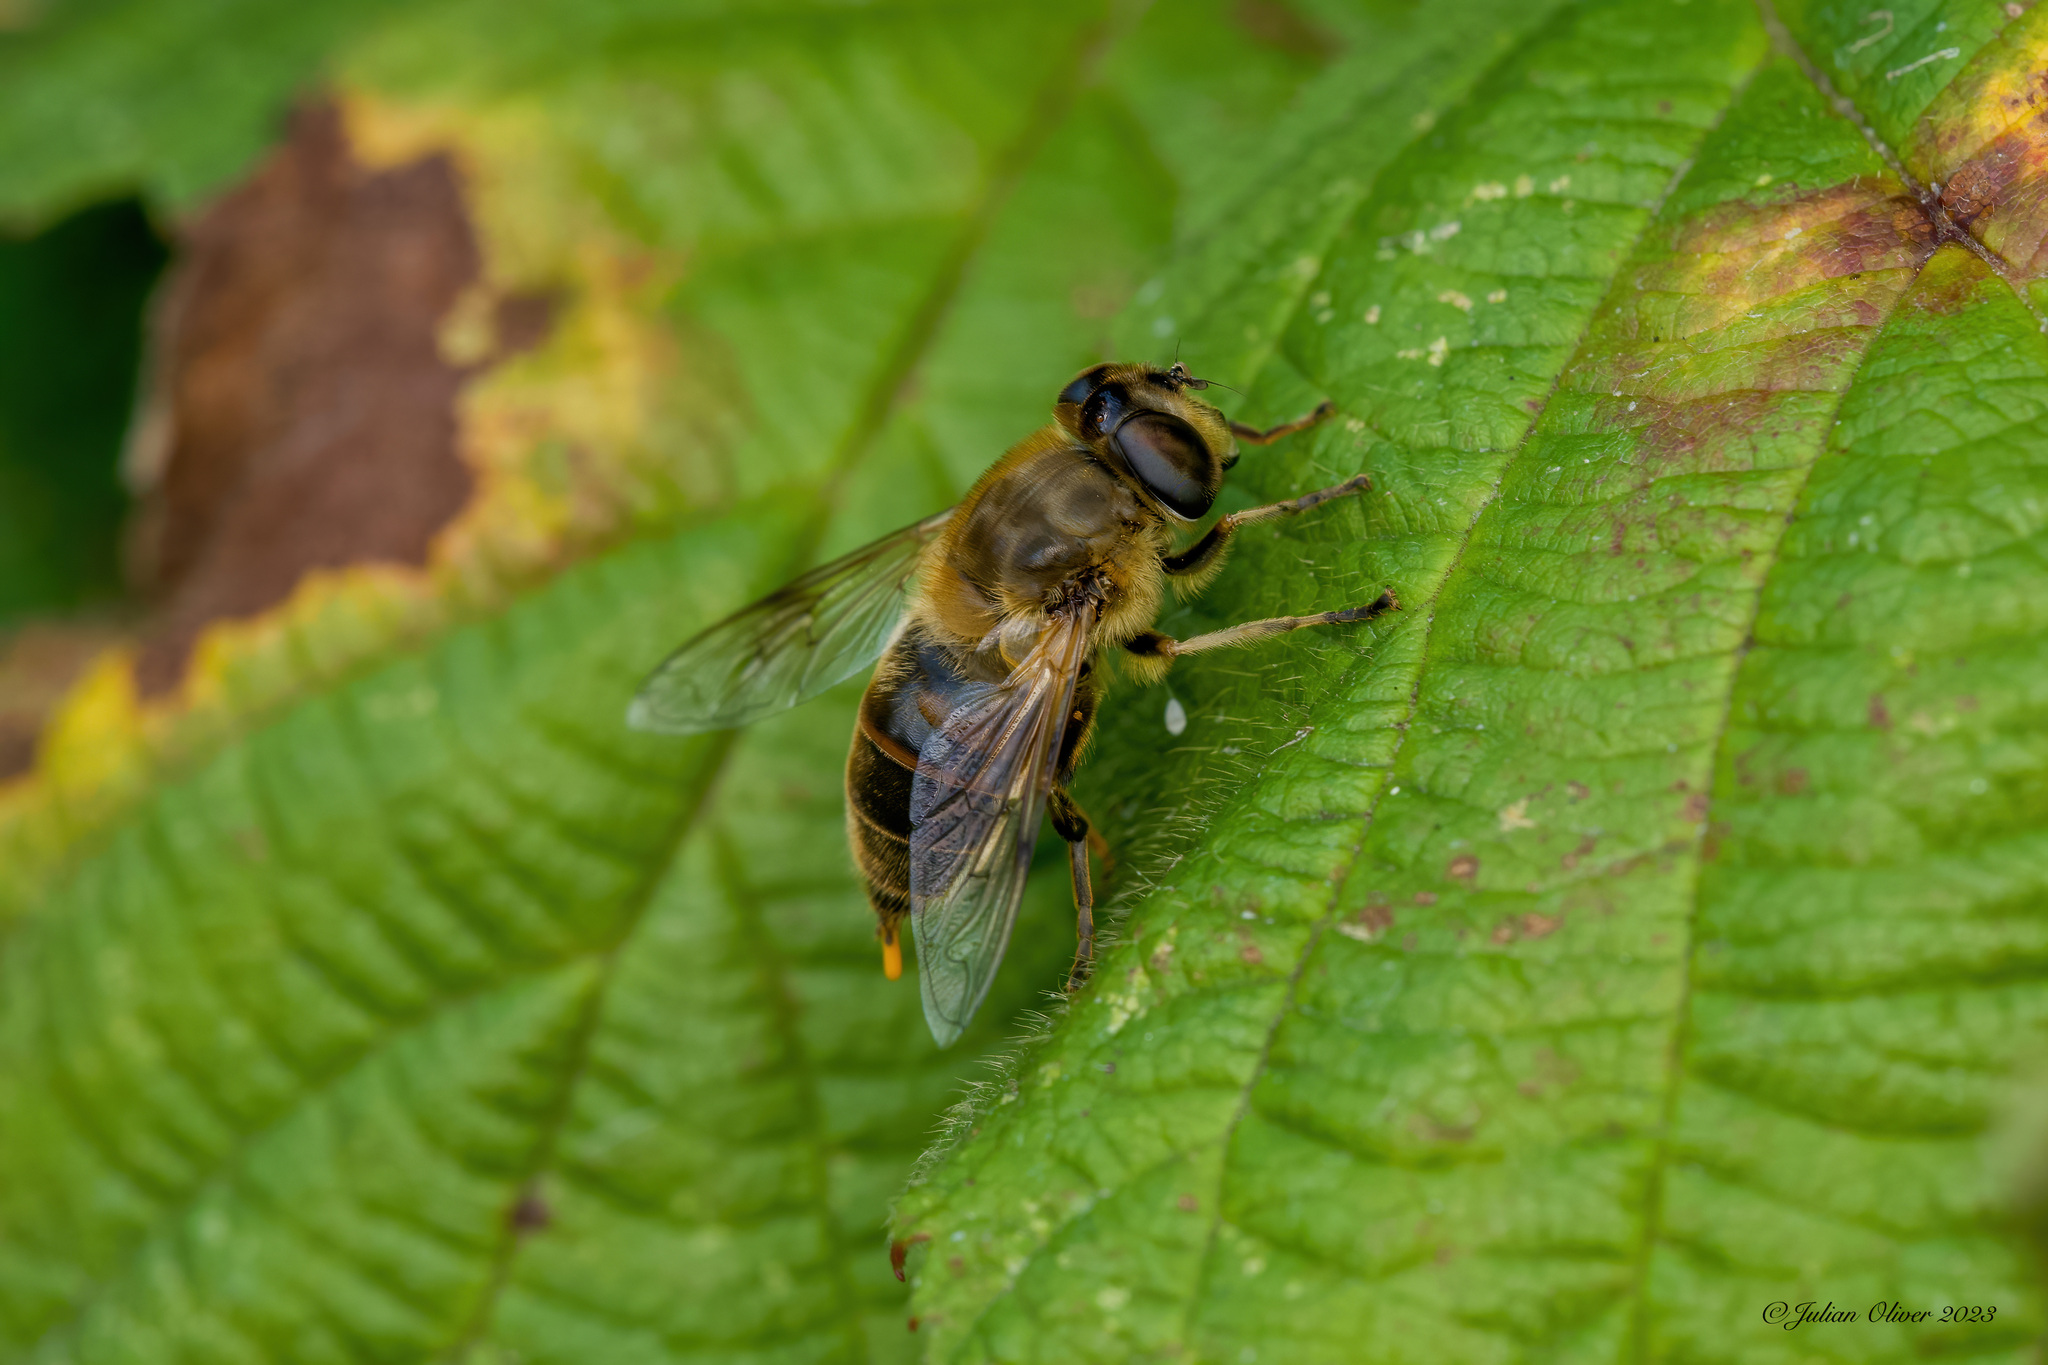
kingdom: Animalia
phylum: Arthropoda
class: Insecta
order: Diptera
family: Syrphidae
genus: Eristalis
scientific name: Eristalis tenax
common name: Drone fly
